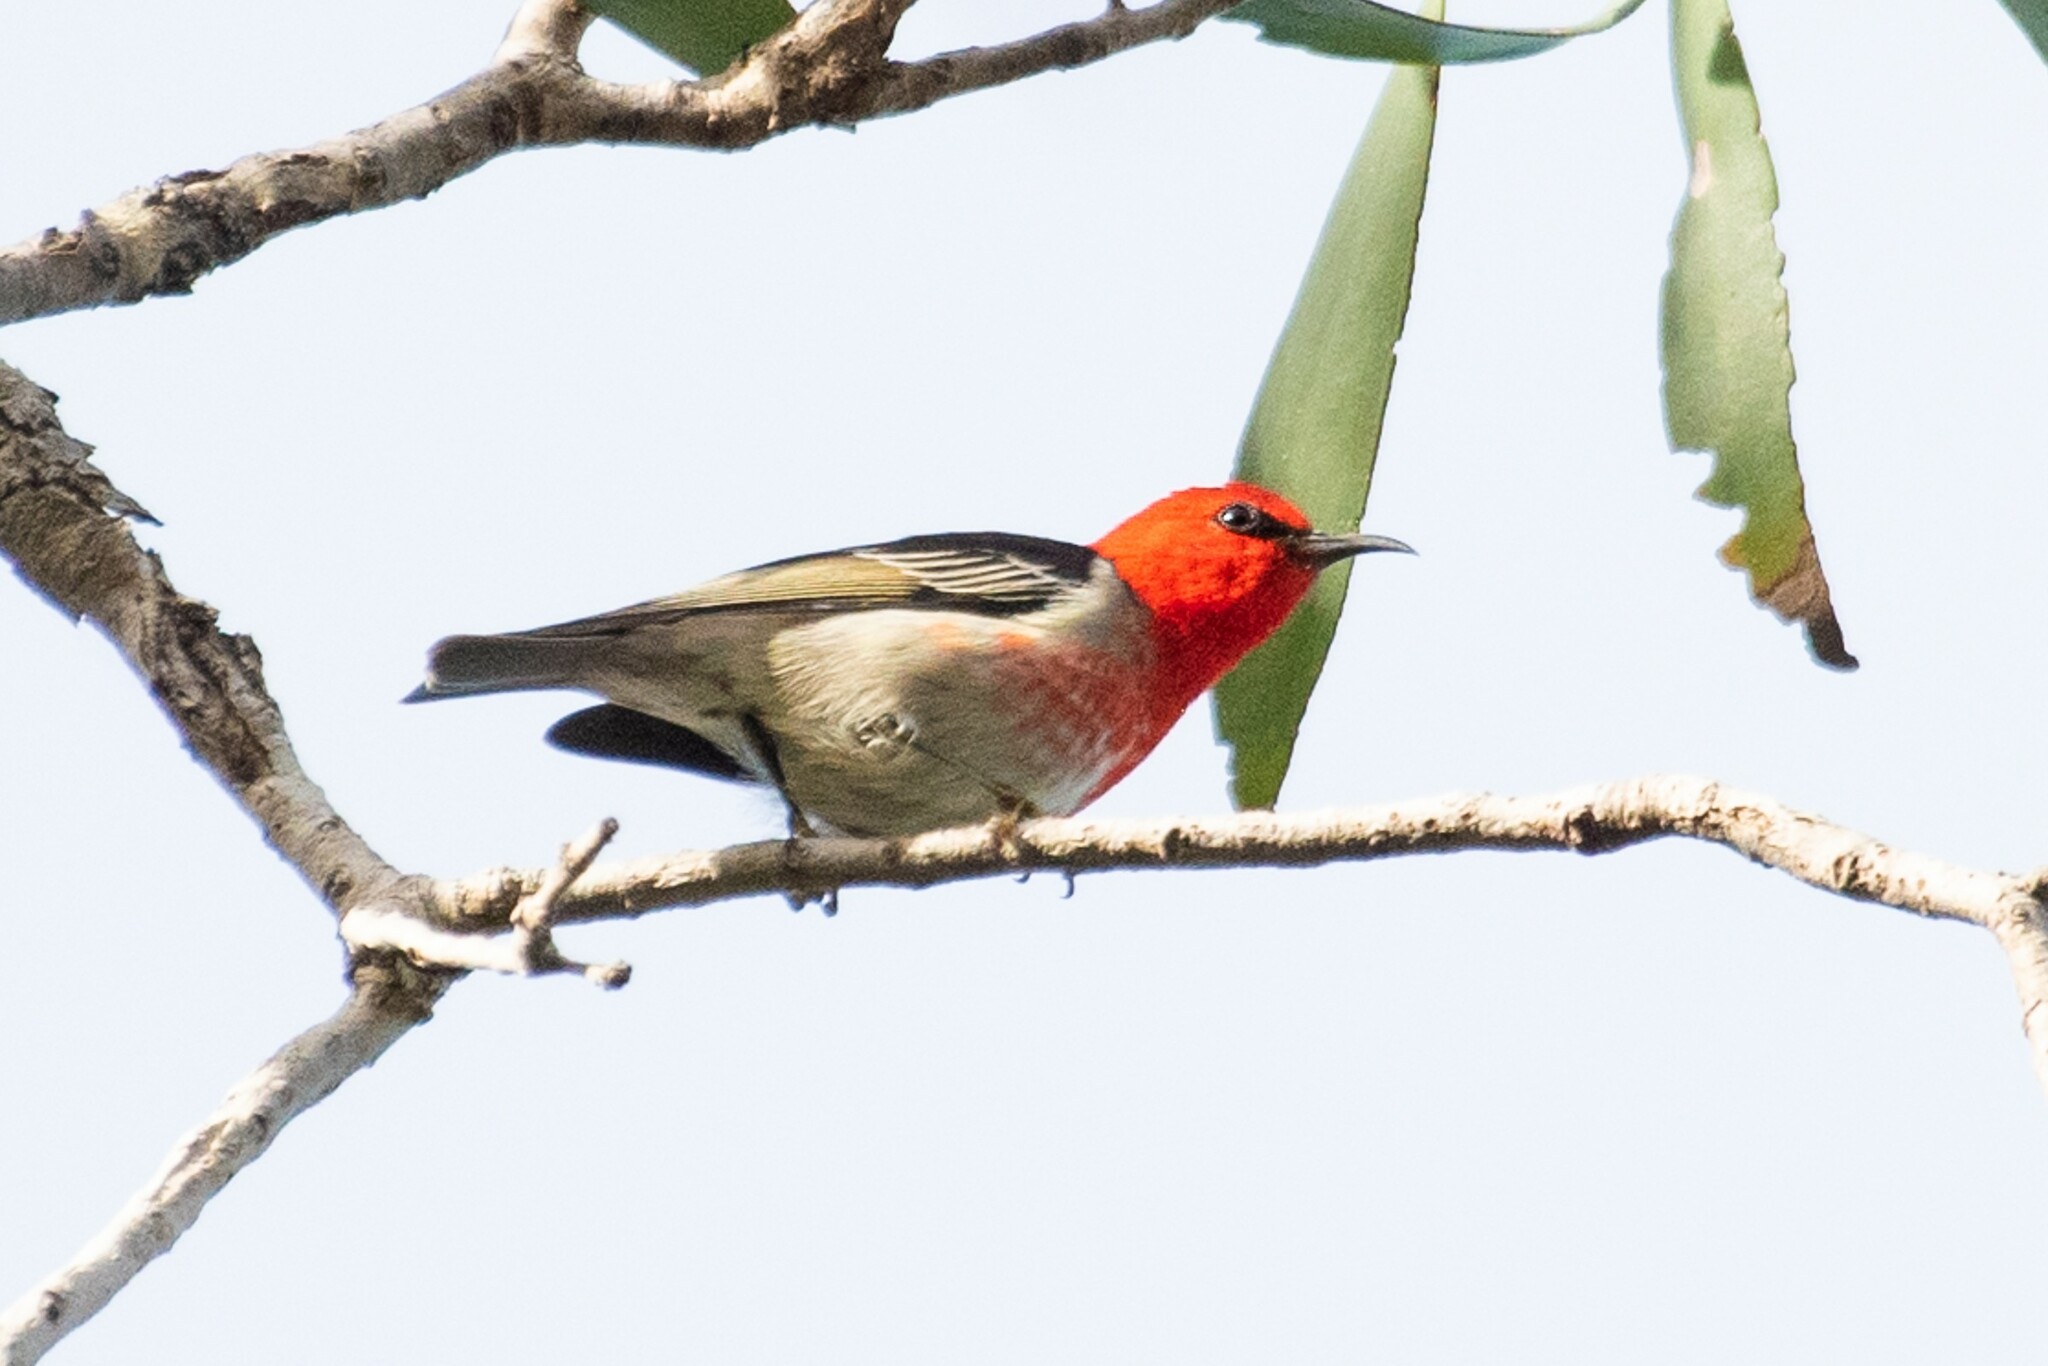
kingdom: Animalia
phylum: Chordata
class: Aves
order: Passeriformes
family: Meliphagidae
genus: Myzomela
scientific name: Myzomela sanguinolenta
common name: Scarlet myzomela
